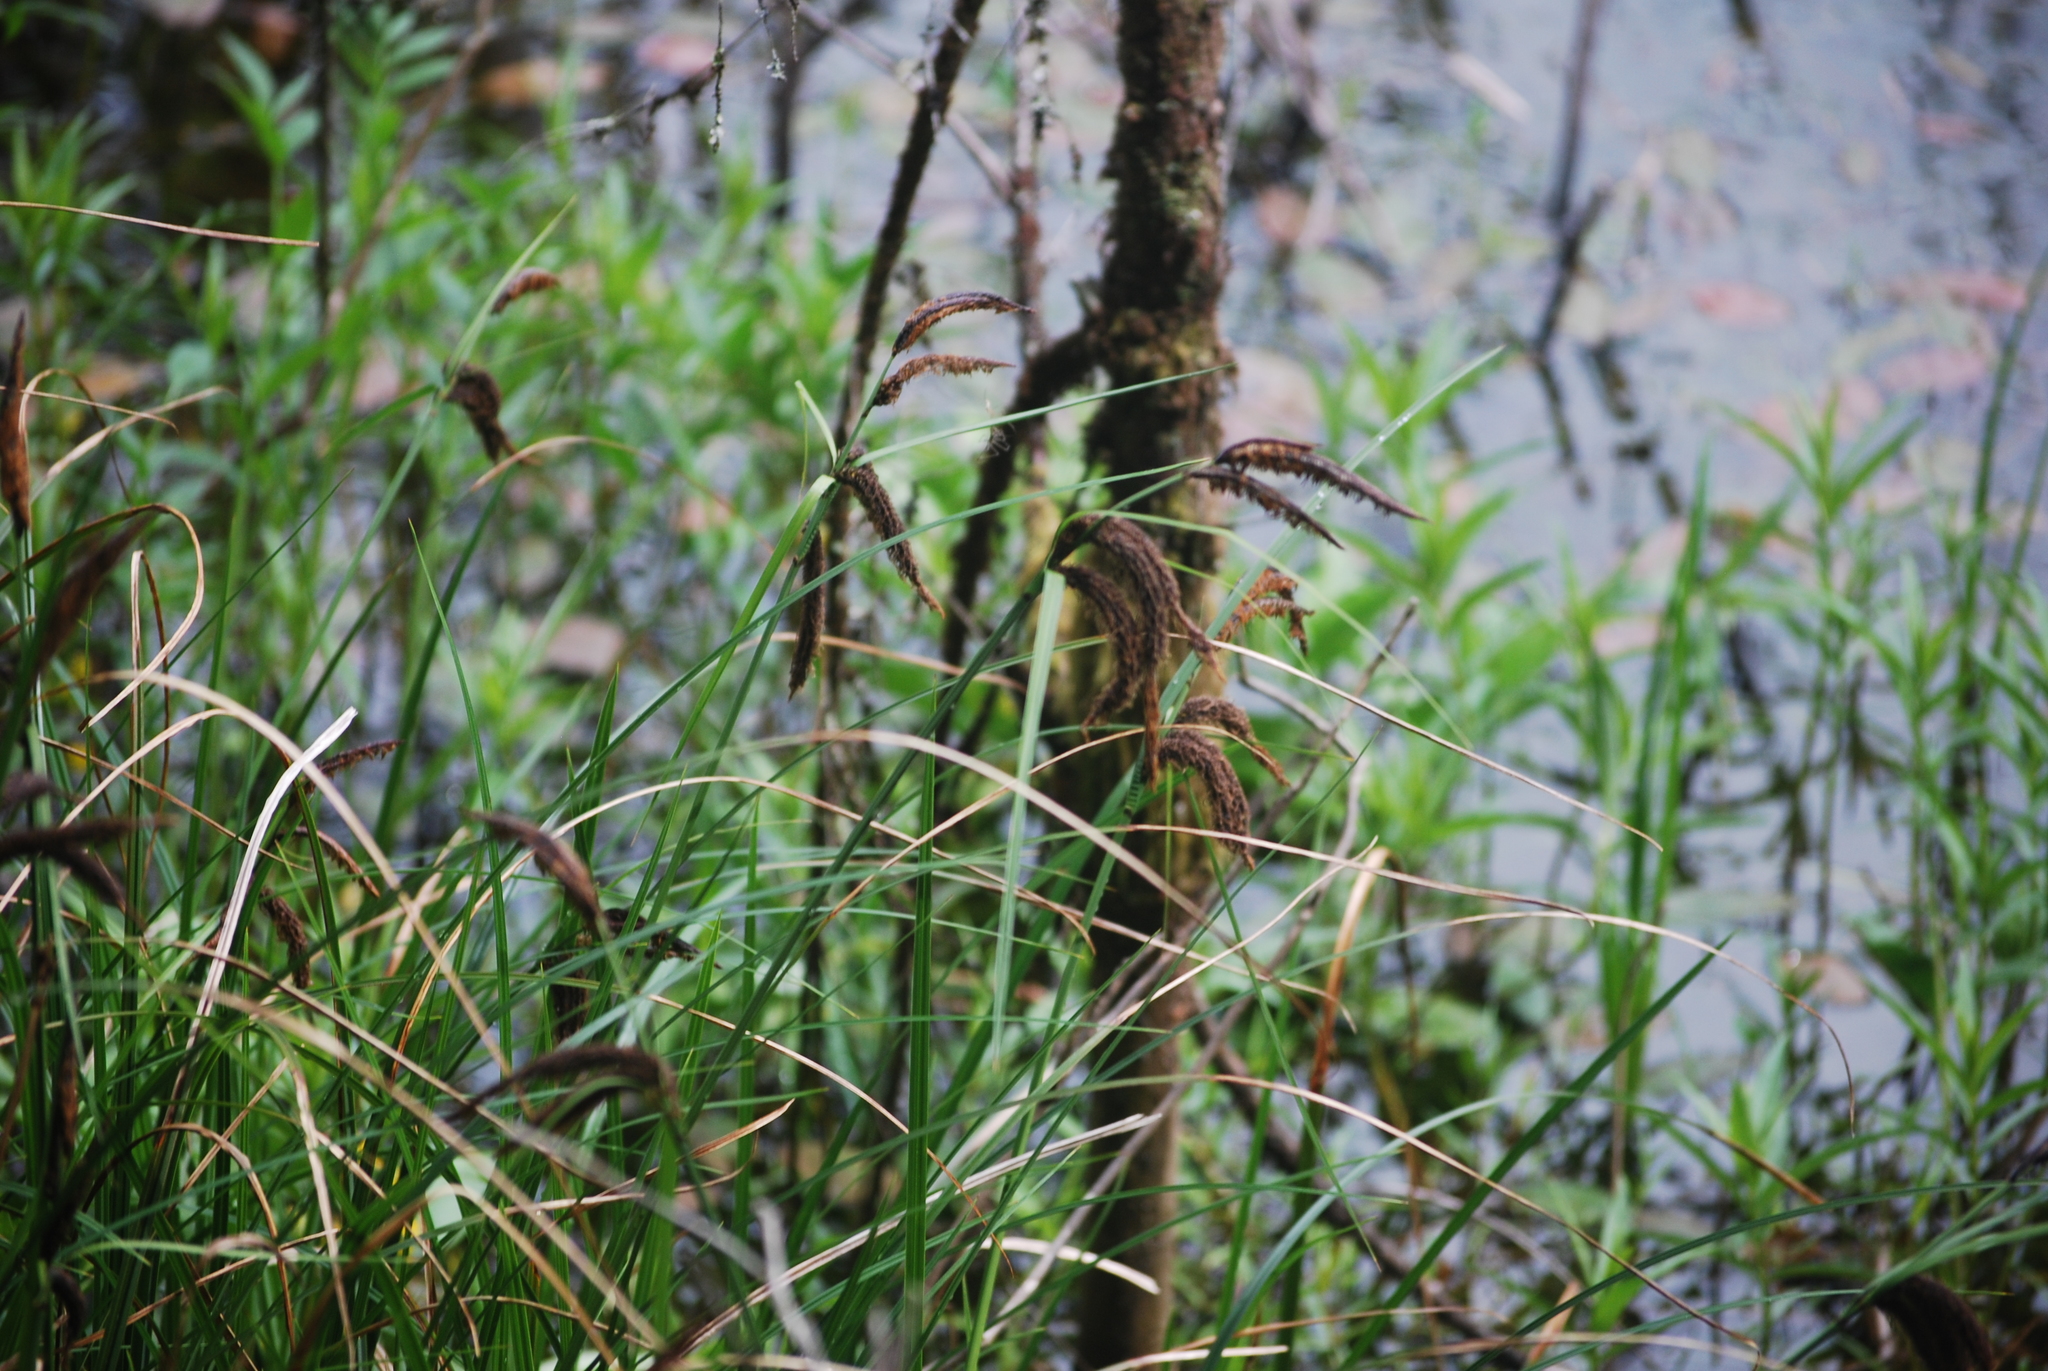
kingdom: Plantae
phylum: Tracheophyta
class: Liliopsida
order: Poales
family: Cyperaceae
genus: Carex
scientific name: Carex obnupta
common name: Slough sedge
